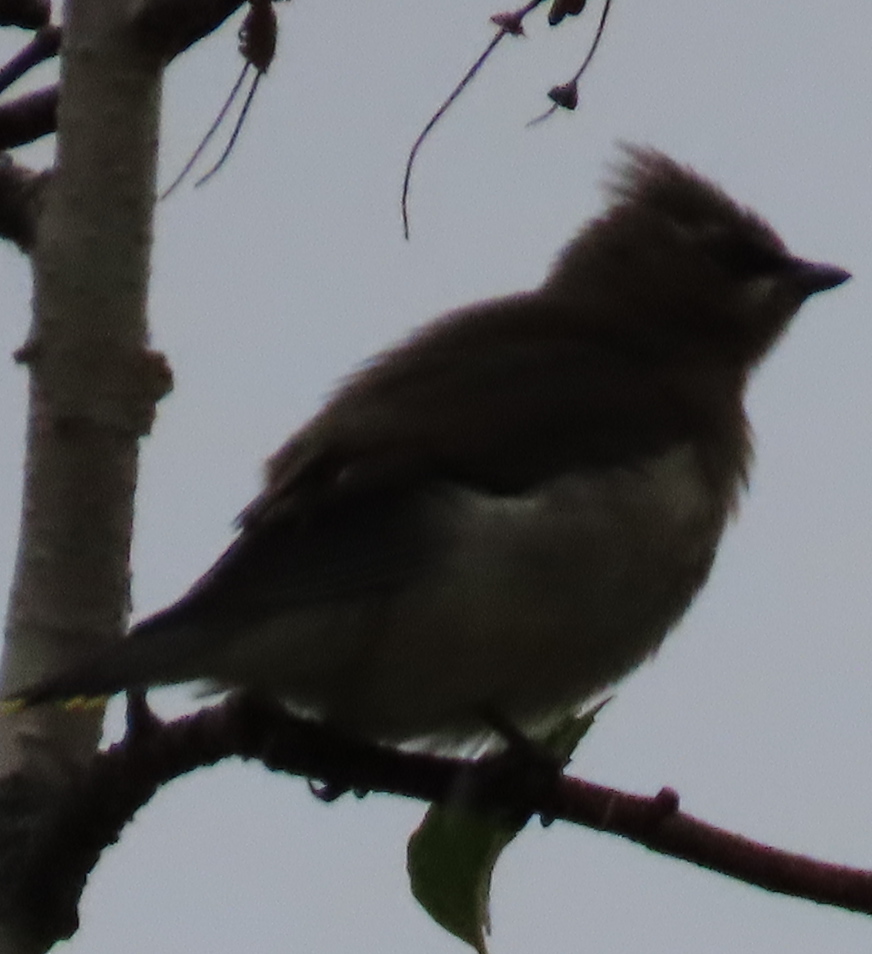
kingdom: Animalia
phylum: Chordata
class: Aves
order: Passeriformes
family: Bombycillidae
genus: Bombycilla
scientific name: Bombycilla cedrorum
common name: Cedar waxwing
